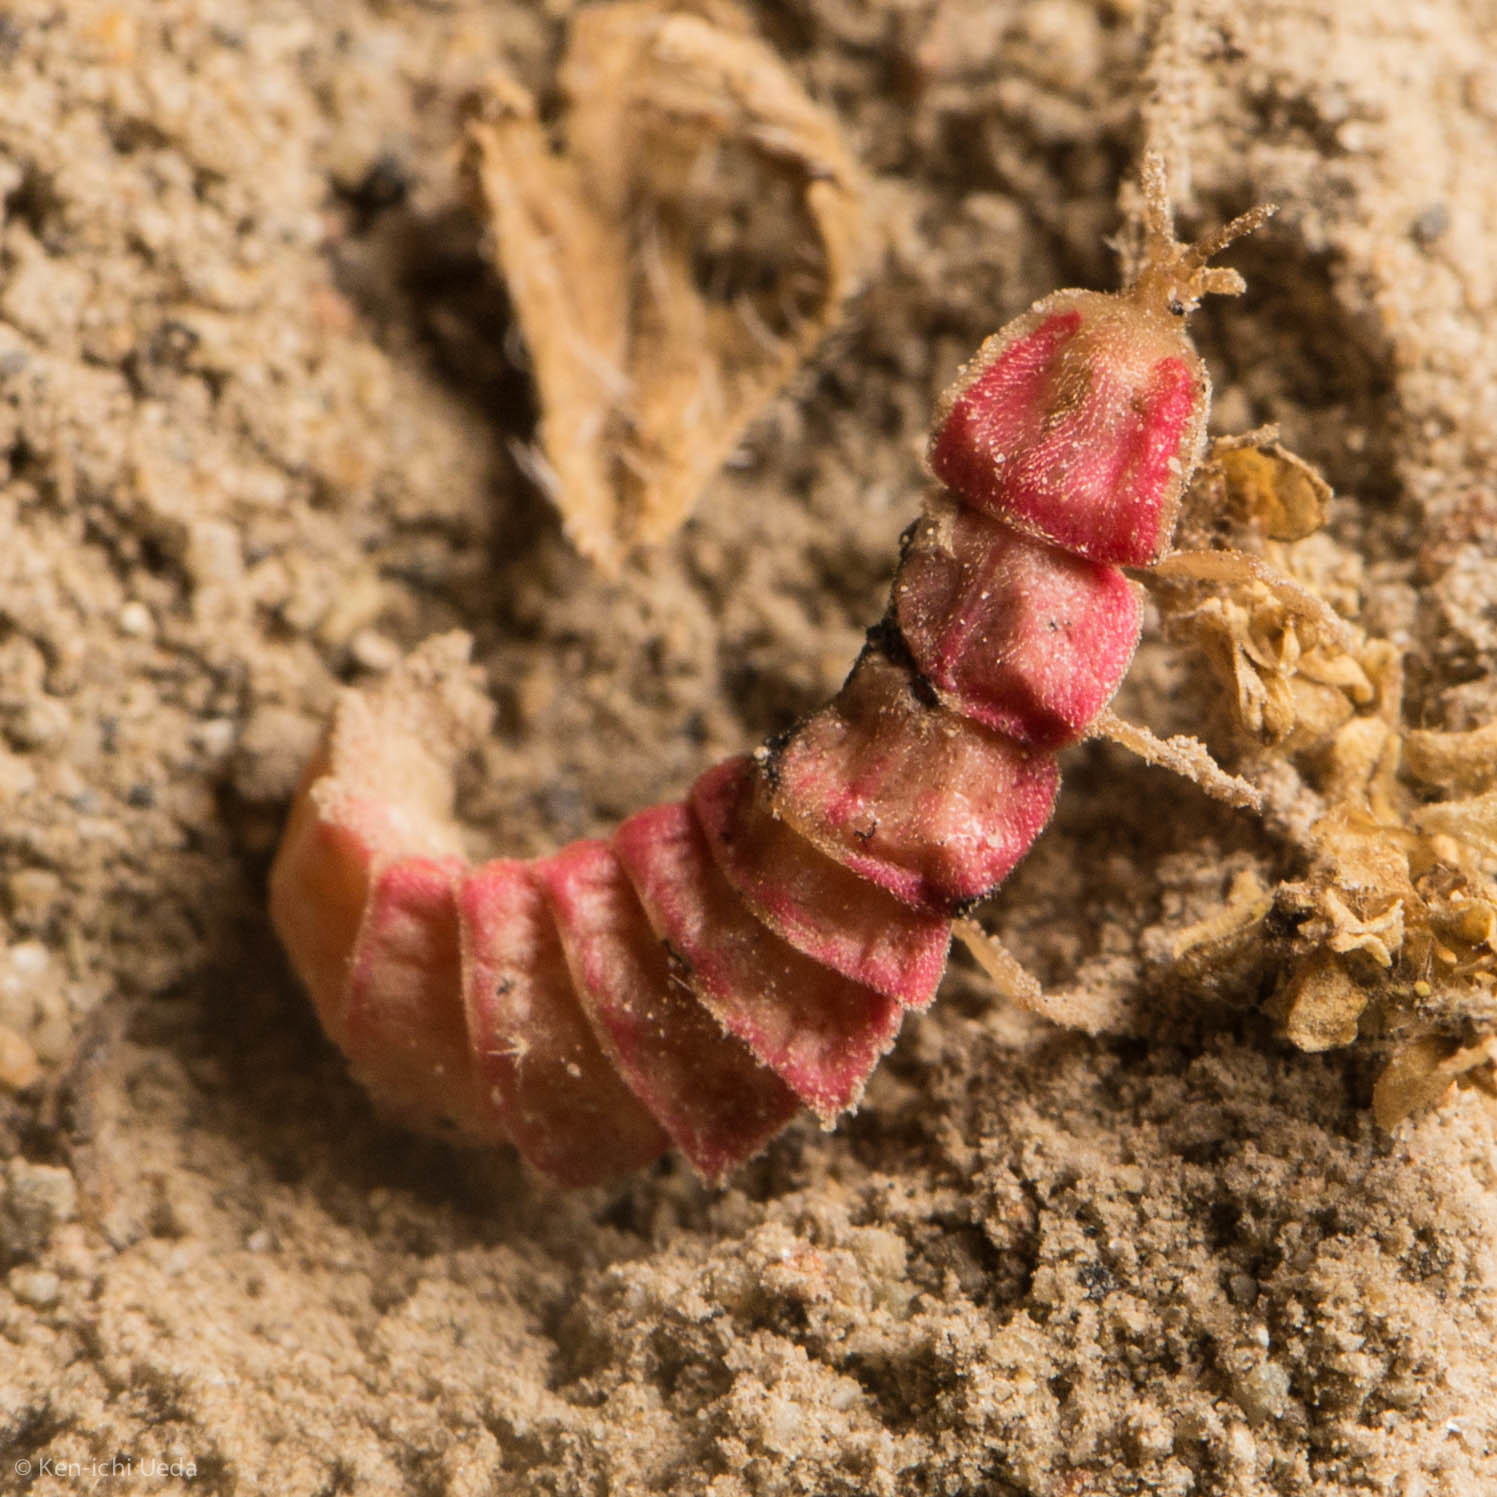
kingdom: Animalia
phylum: Arthropoda
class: Insecta
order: Coleoptera
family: Lampyridae
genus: Microphotus
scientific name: Microphotus angustus
